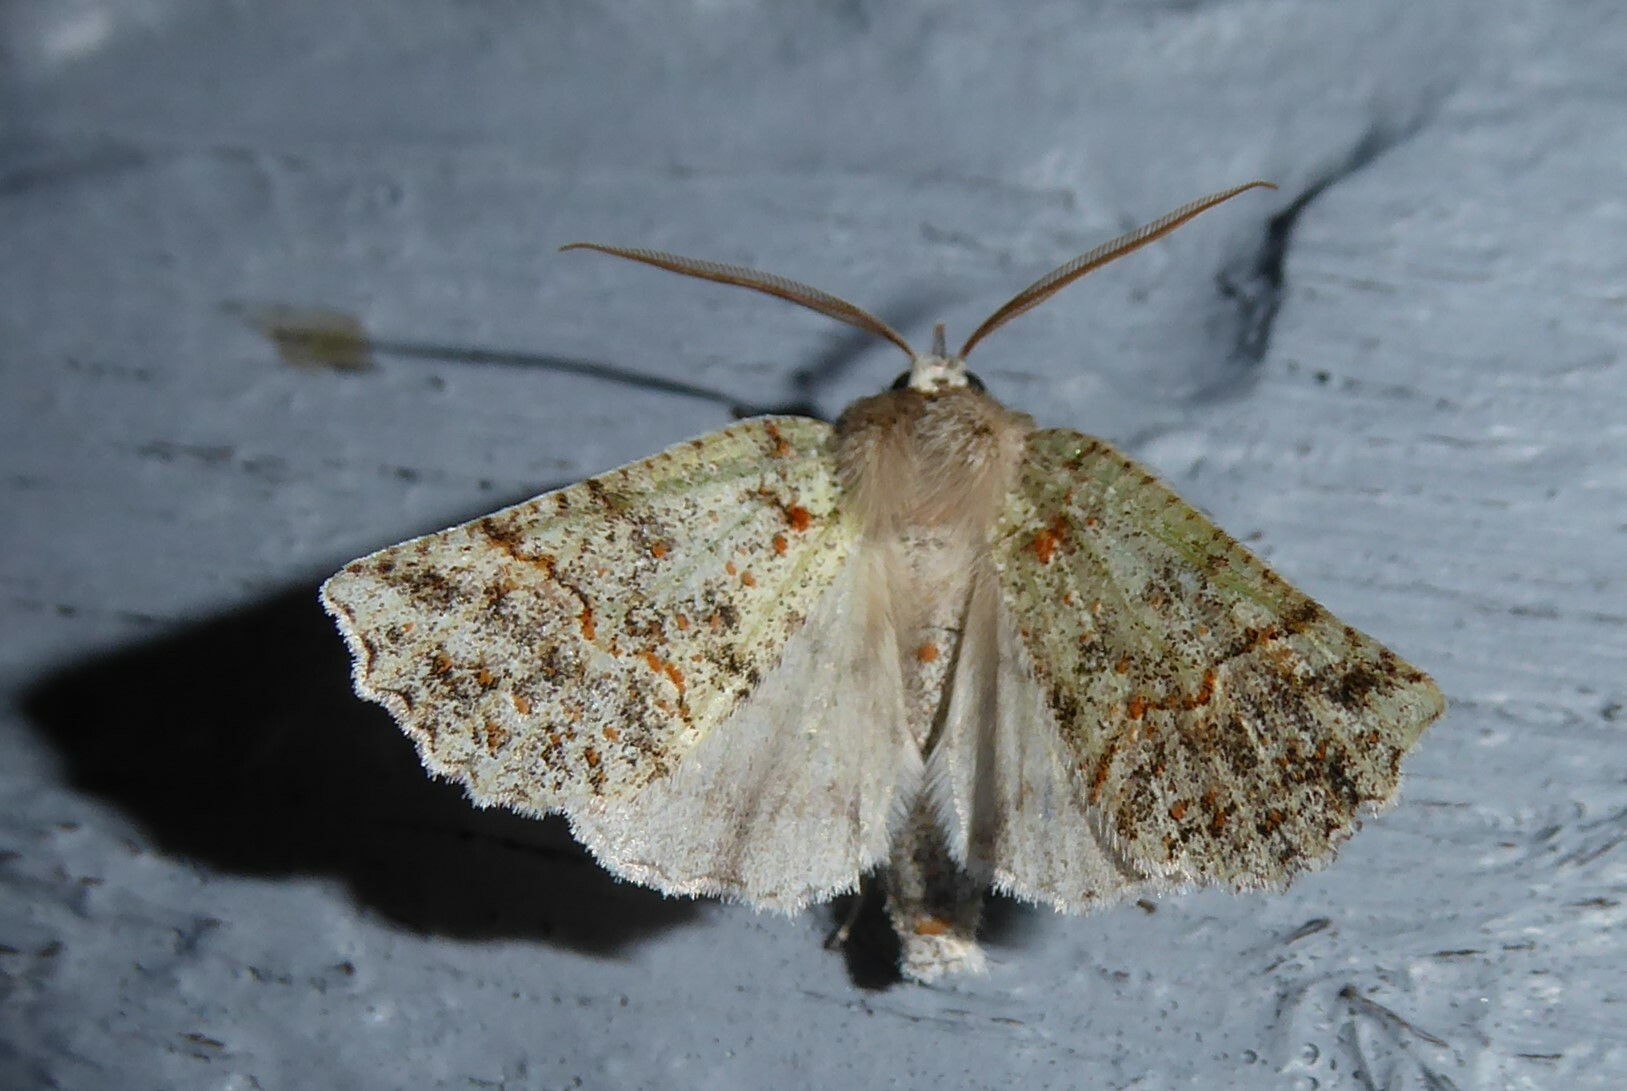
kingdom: Animalia
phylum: Arthropoda
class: Insecta
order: Lepidoptera
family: Geometridae
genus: Declana
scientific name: Declana floccosa
